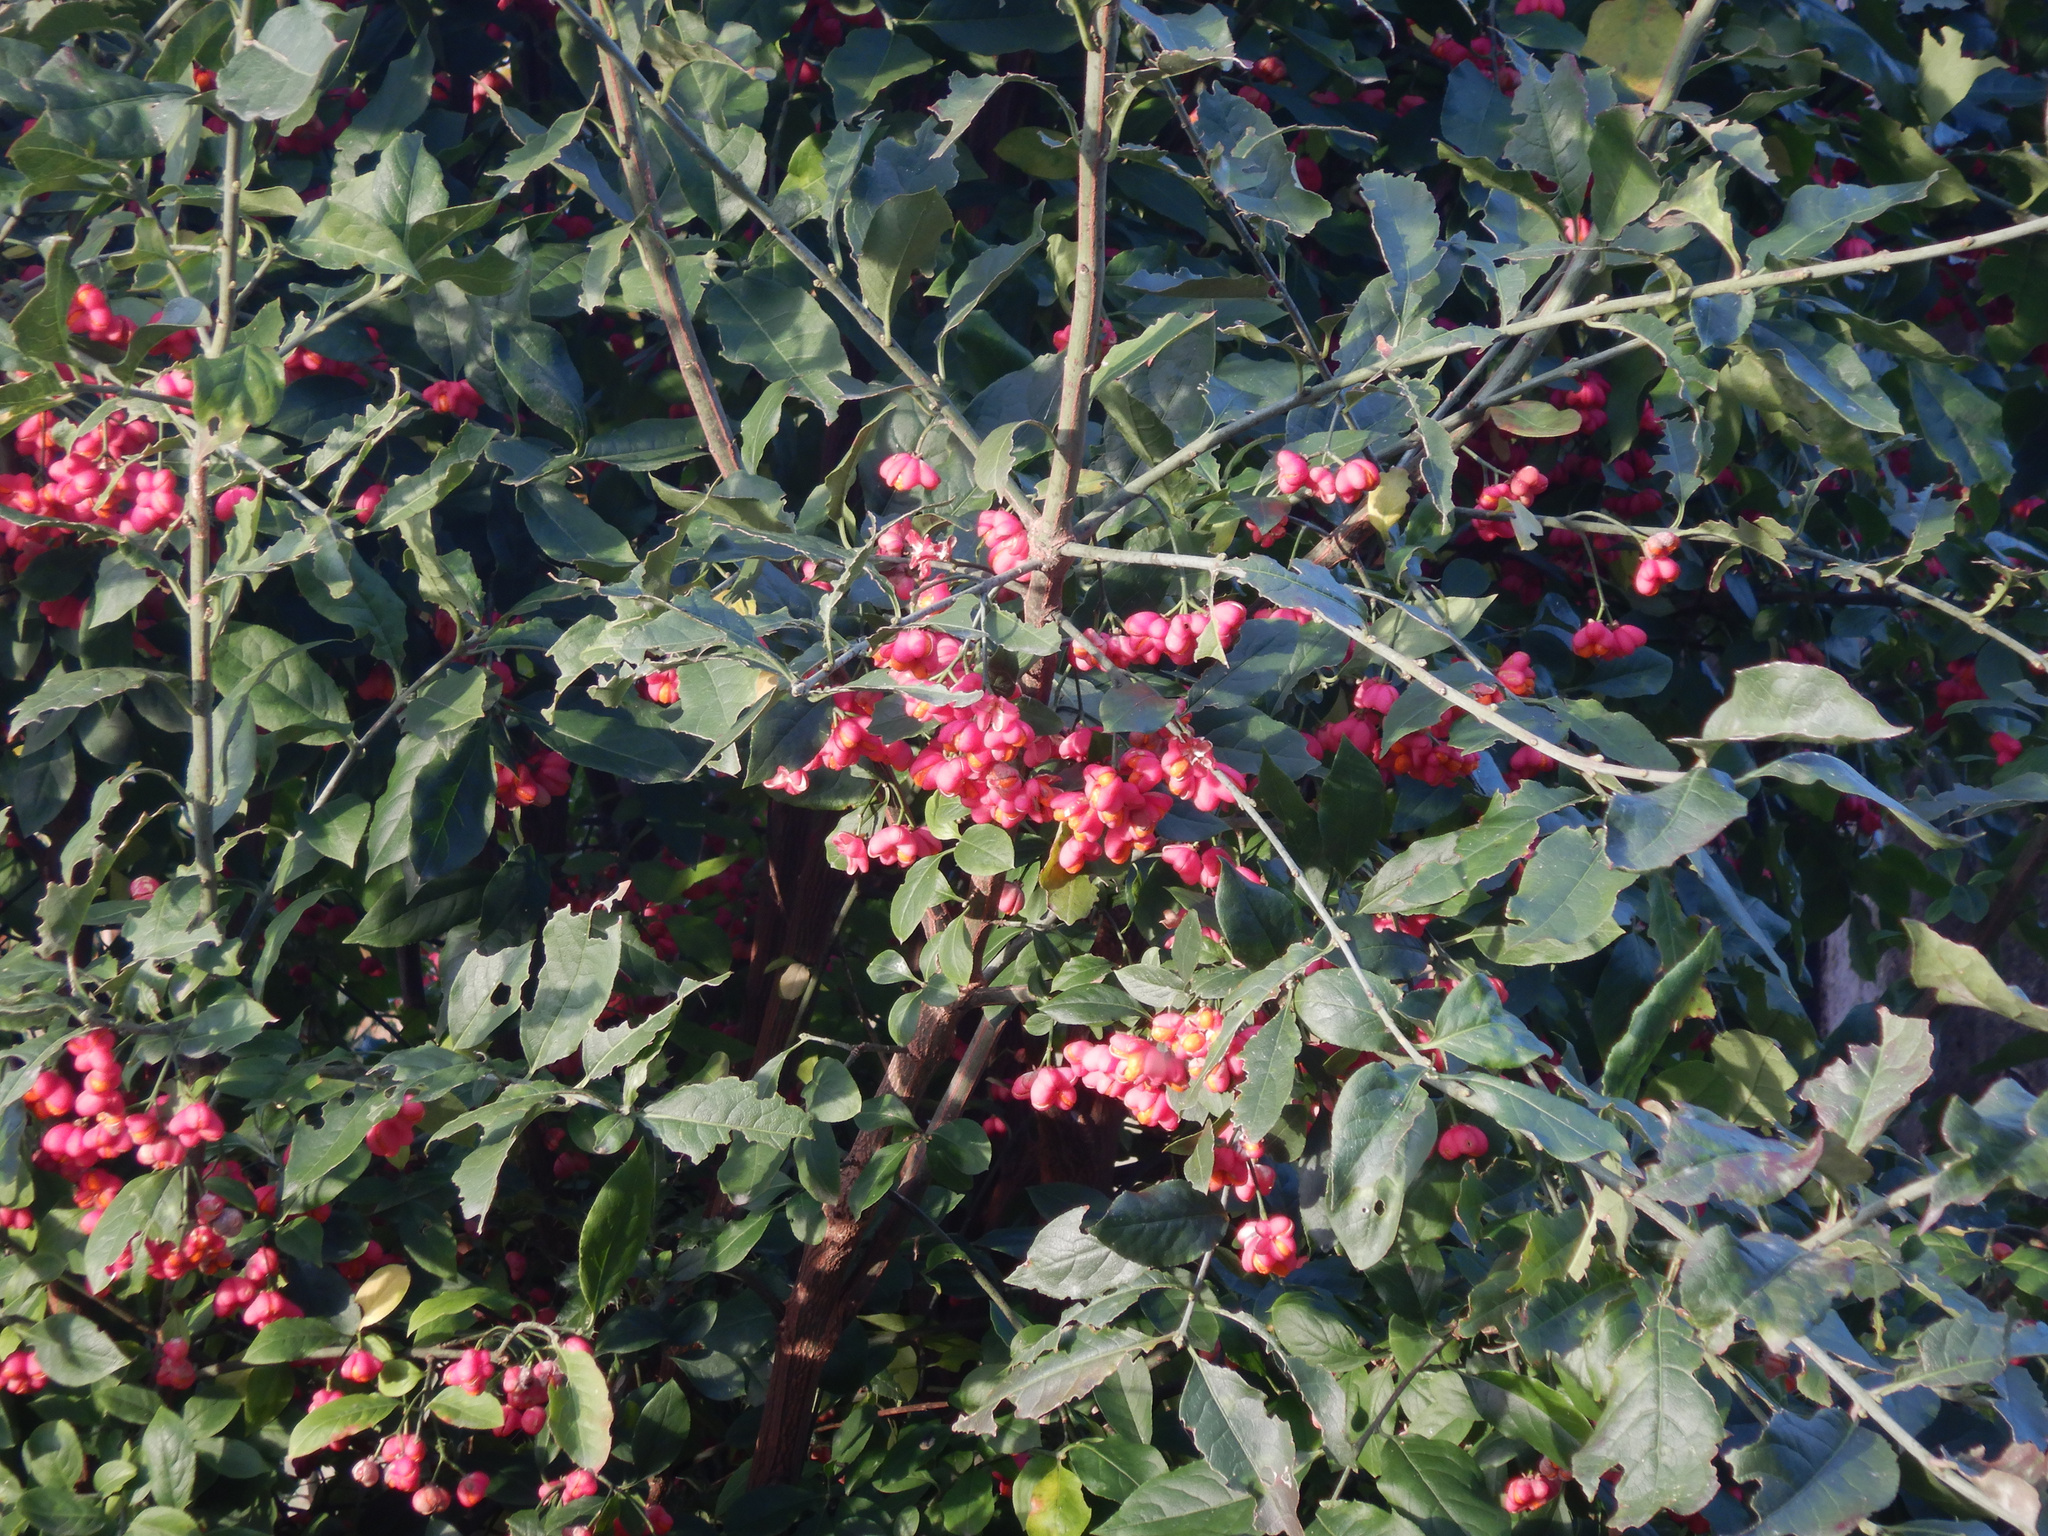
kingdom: Plantae
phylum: Tracheophyta
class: Magnoliopsida
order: Celastrales
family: Celastraceae
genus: Euonymus
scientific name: Euonymus europaeus
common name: Spindle
